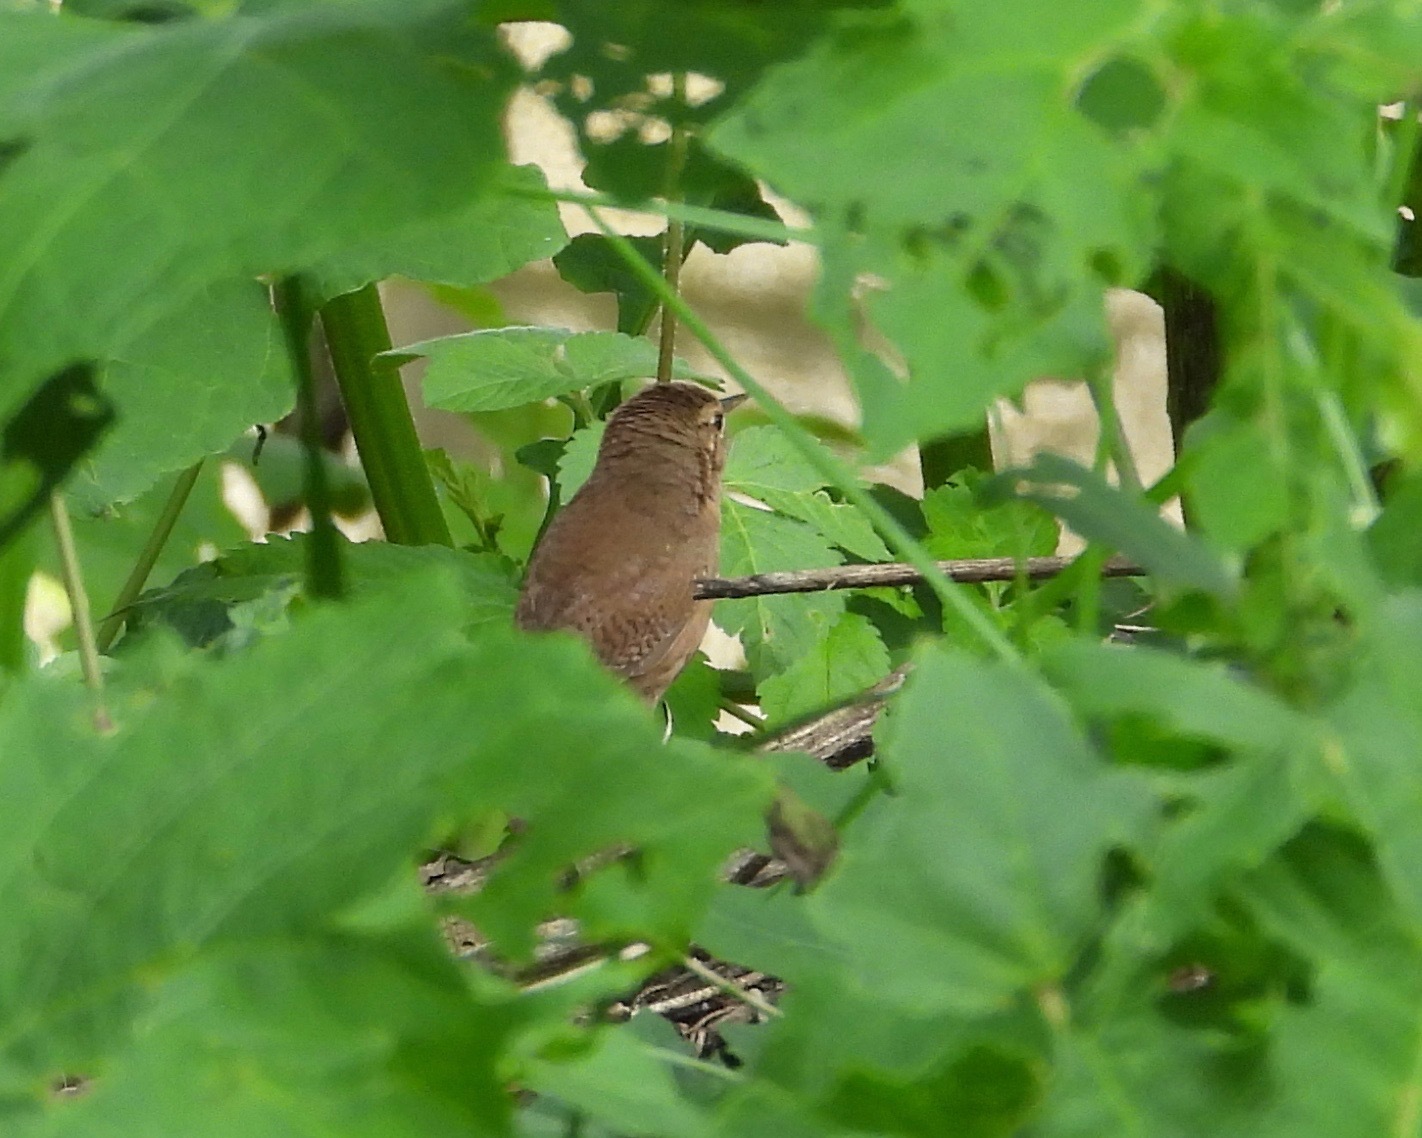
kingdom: Animalia
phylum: Chordata
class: Aves
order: Passeriformes
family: Troglodytidae
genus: Troglodytes
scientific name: Troglodytes aedon
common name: House wren
